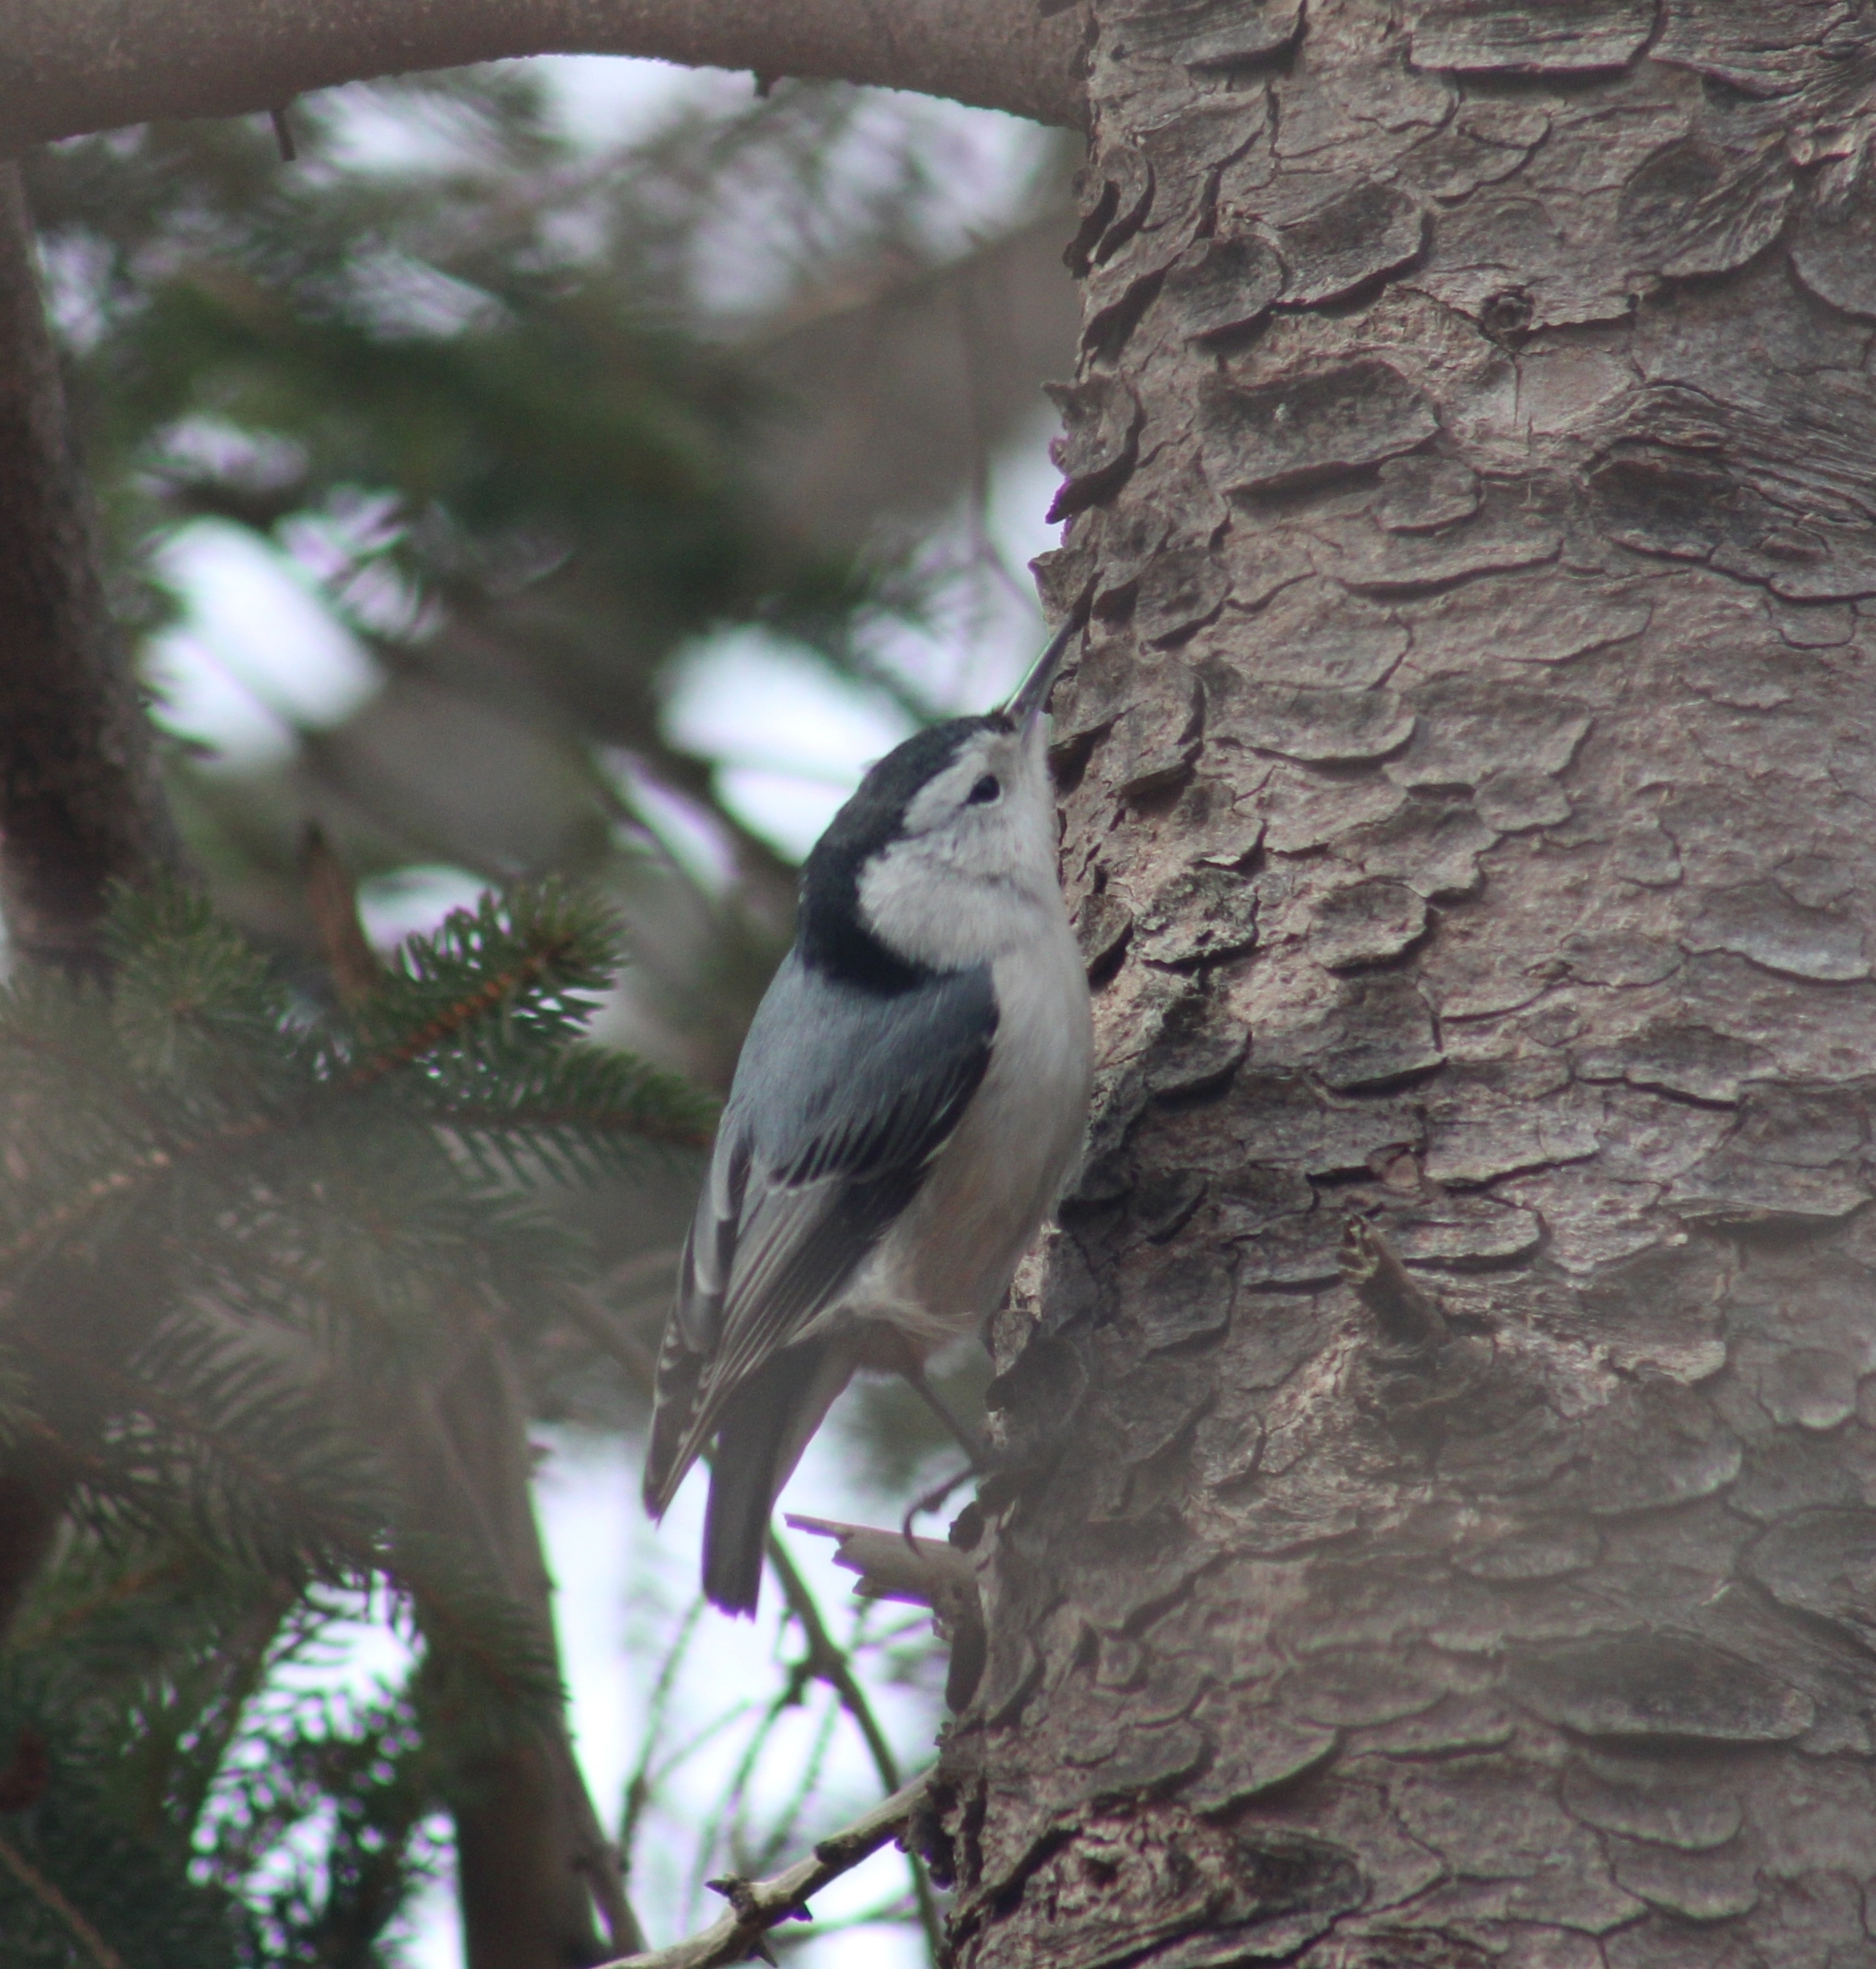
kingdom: Animalia
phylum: Chordata
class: Aves
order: Passeriformes
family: Sittidae
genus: Sitta
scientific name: Sitta carolinensis
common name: White-breasted nuthatch
